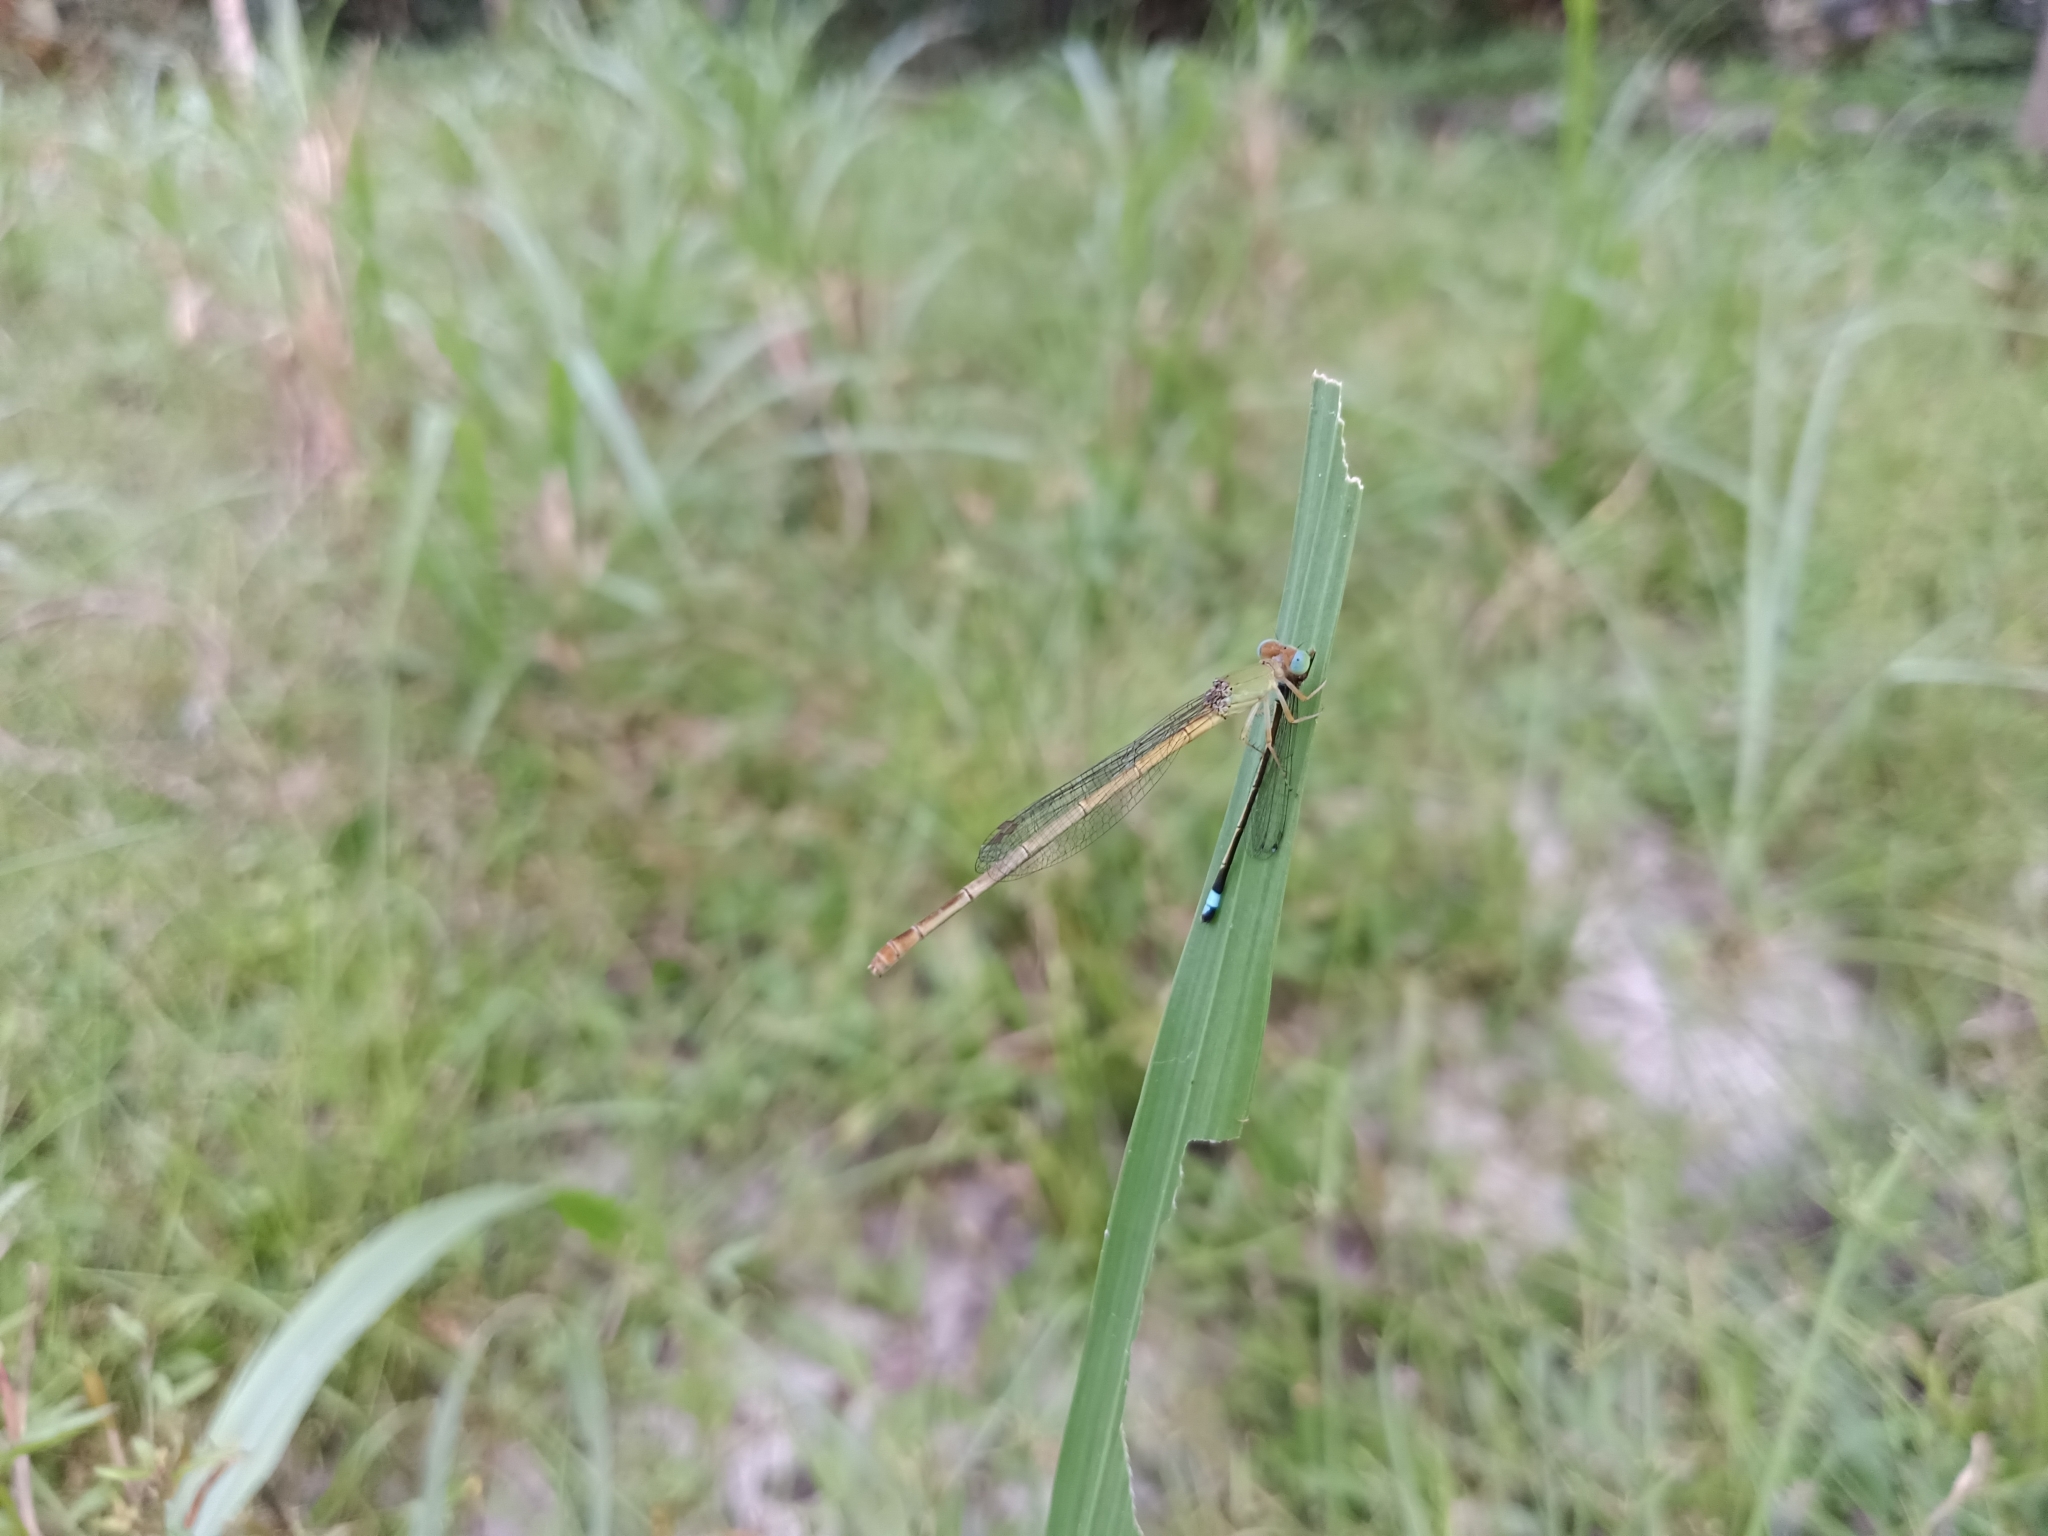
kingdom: Animalia
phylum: Arthropoda
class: Insecta
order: Odonata
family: Coenagrionidae
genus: Ceriagrion
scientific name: Ceriagrion coromandelianum
